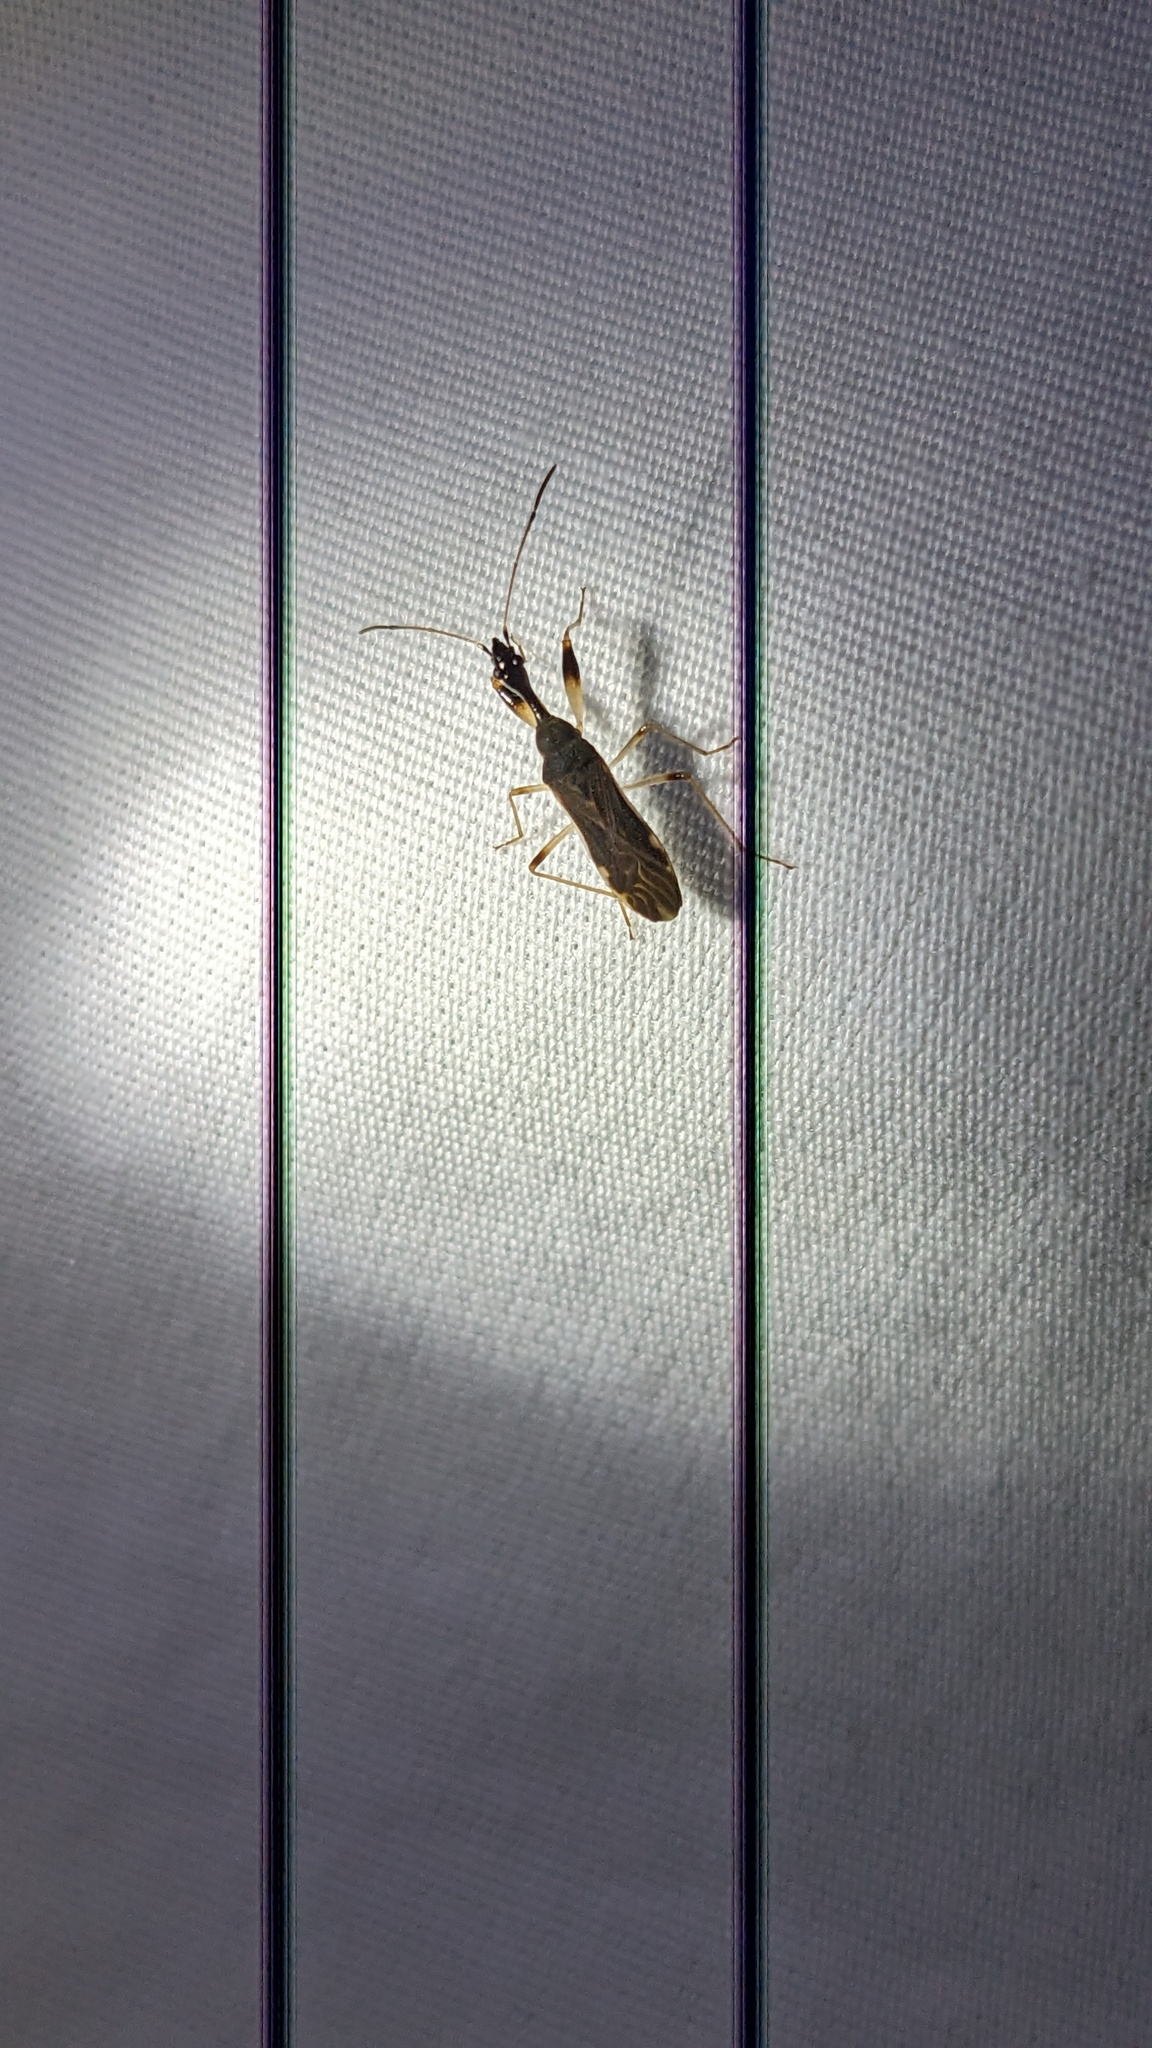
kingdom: Animalia
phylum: Arthropoda
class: Insecta
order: Hemiptera
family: Rhyparochromidae
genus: Myodocha
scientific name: Myodocha serripes
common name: Long-necked seed bug
